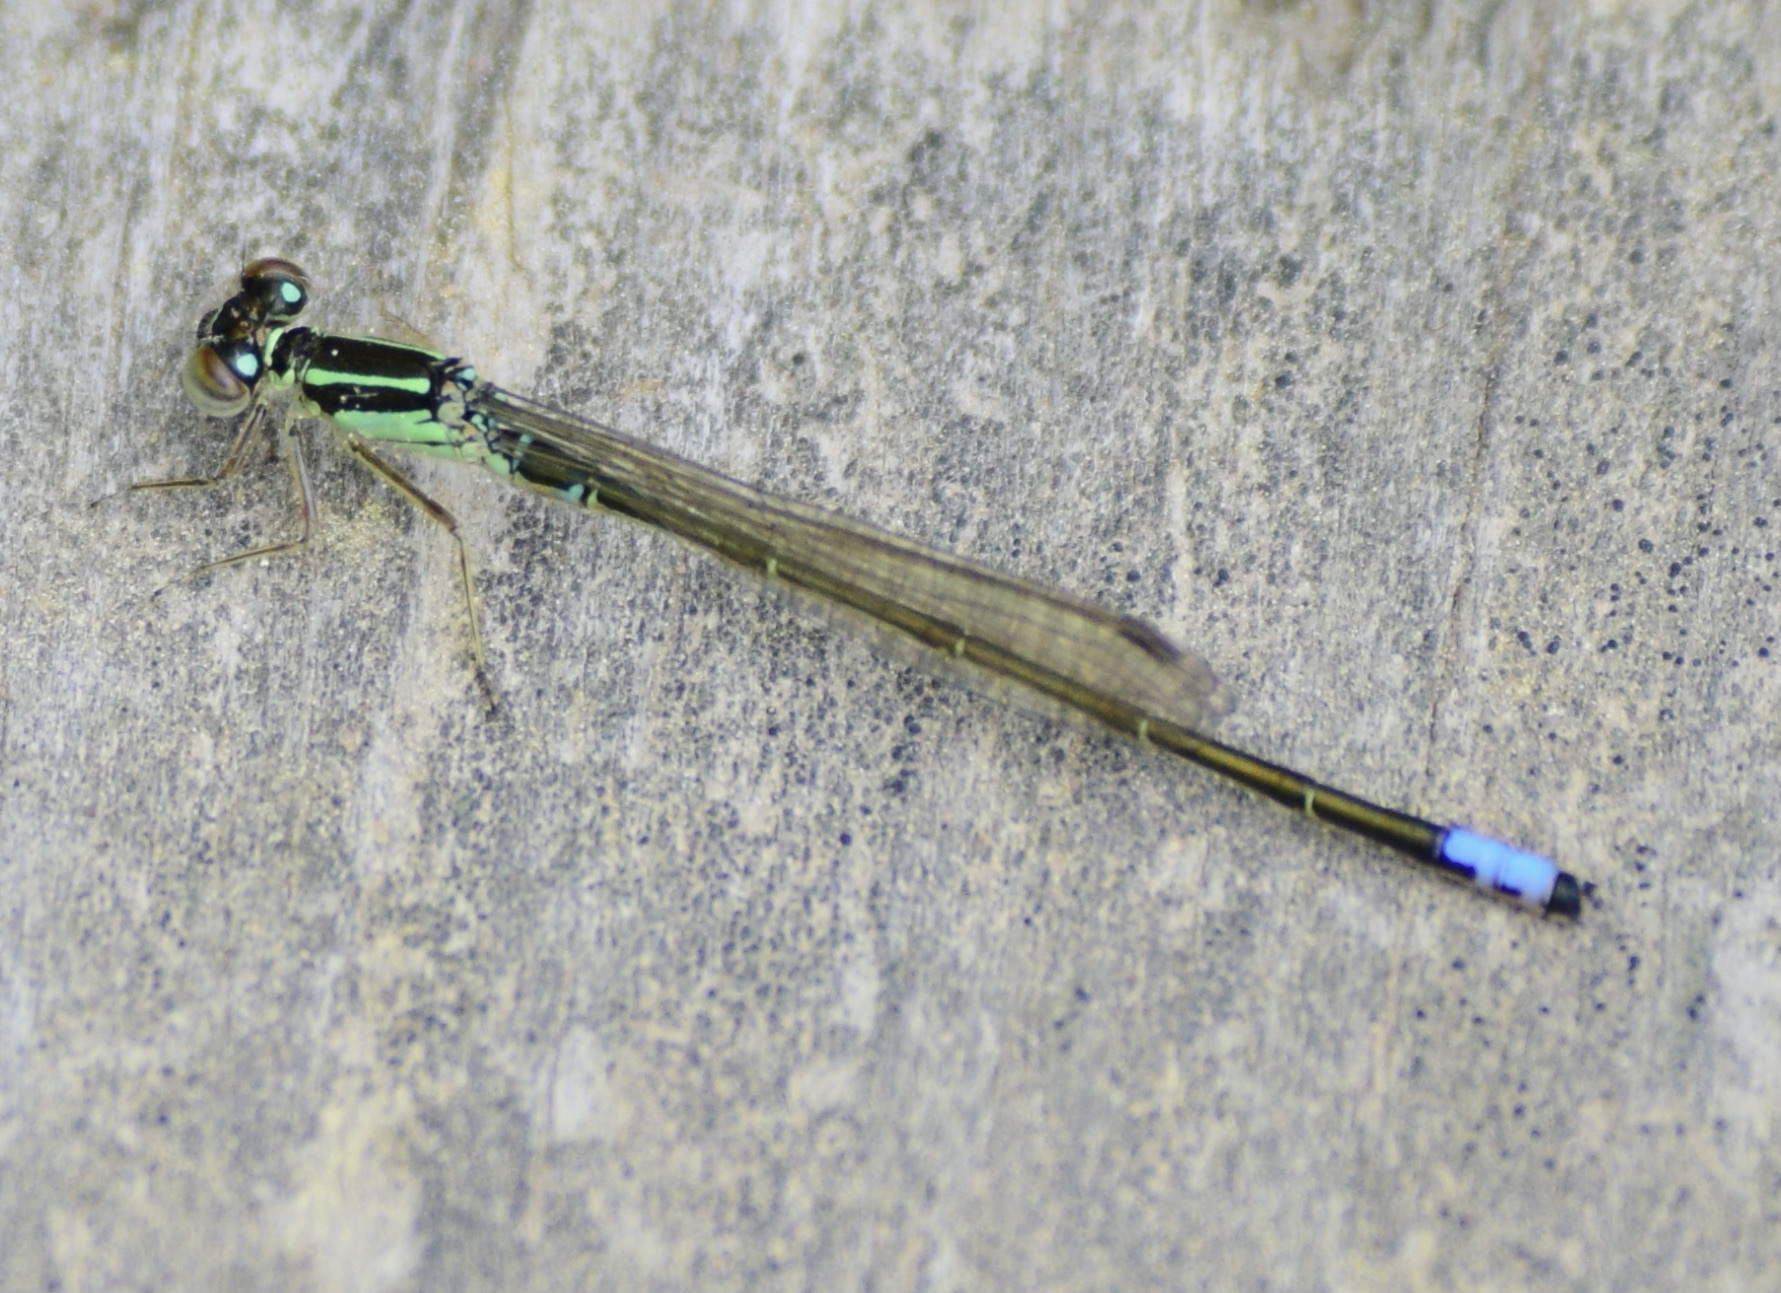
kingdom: Animalia
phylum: Arthropoda
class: Insecta
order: Odonata
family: Coenagrionidae
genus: Ischnura
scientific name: Ischnura verticalis
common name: Eastern forktail
